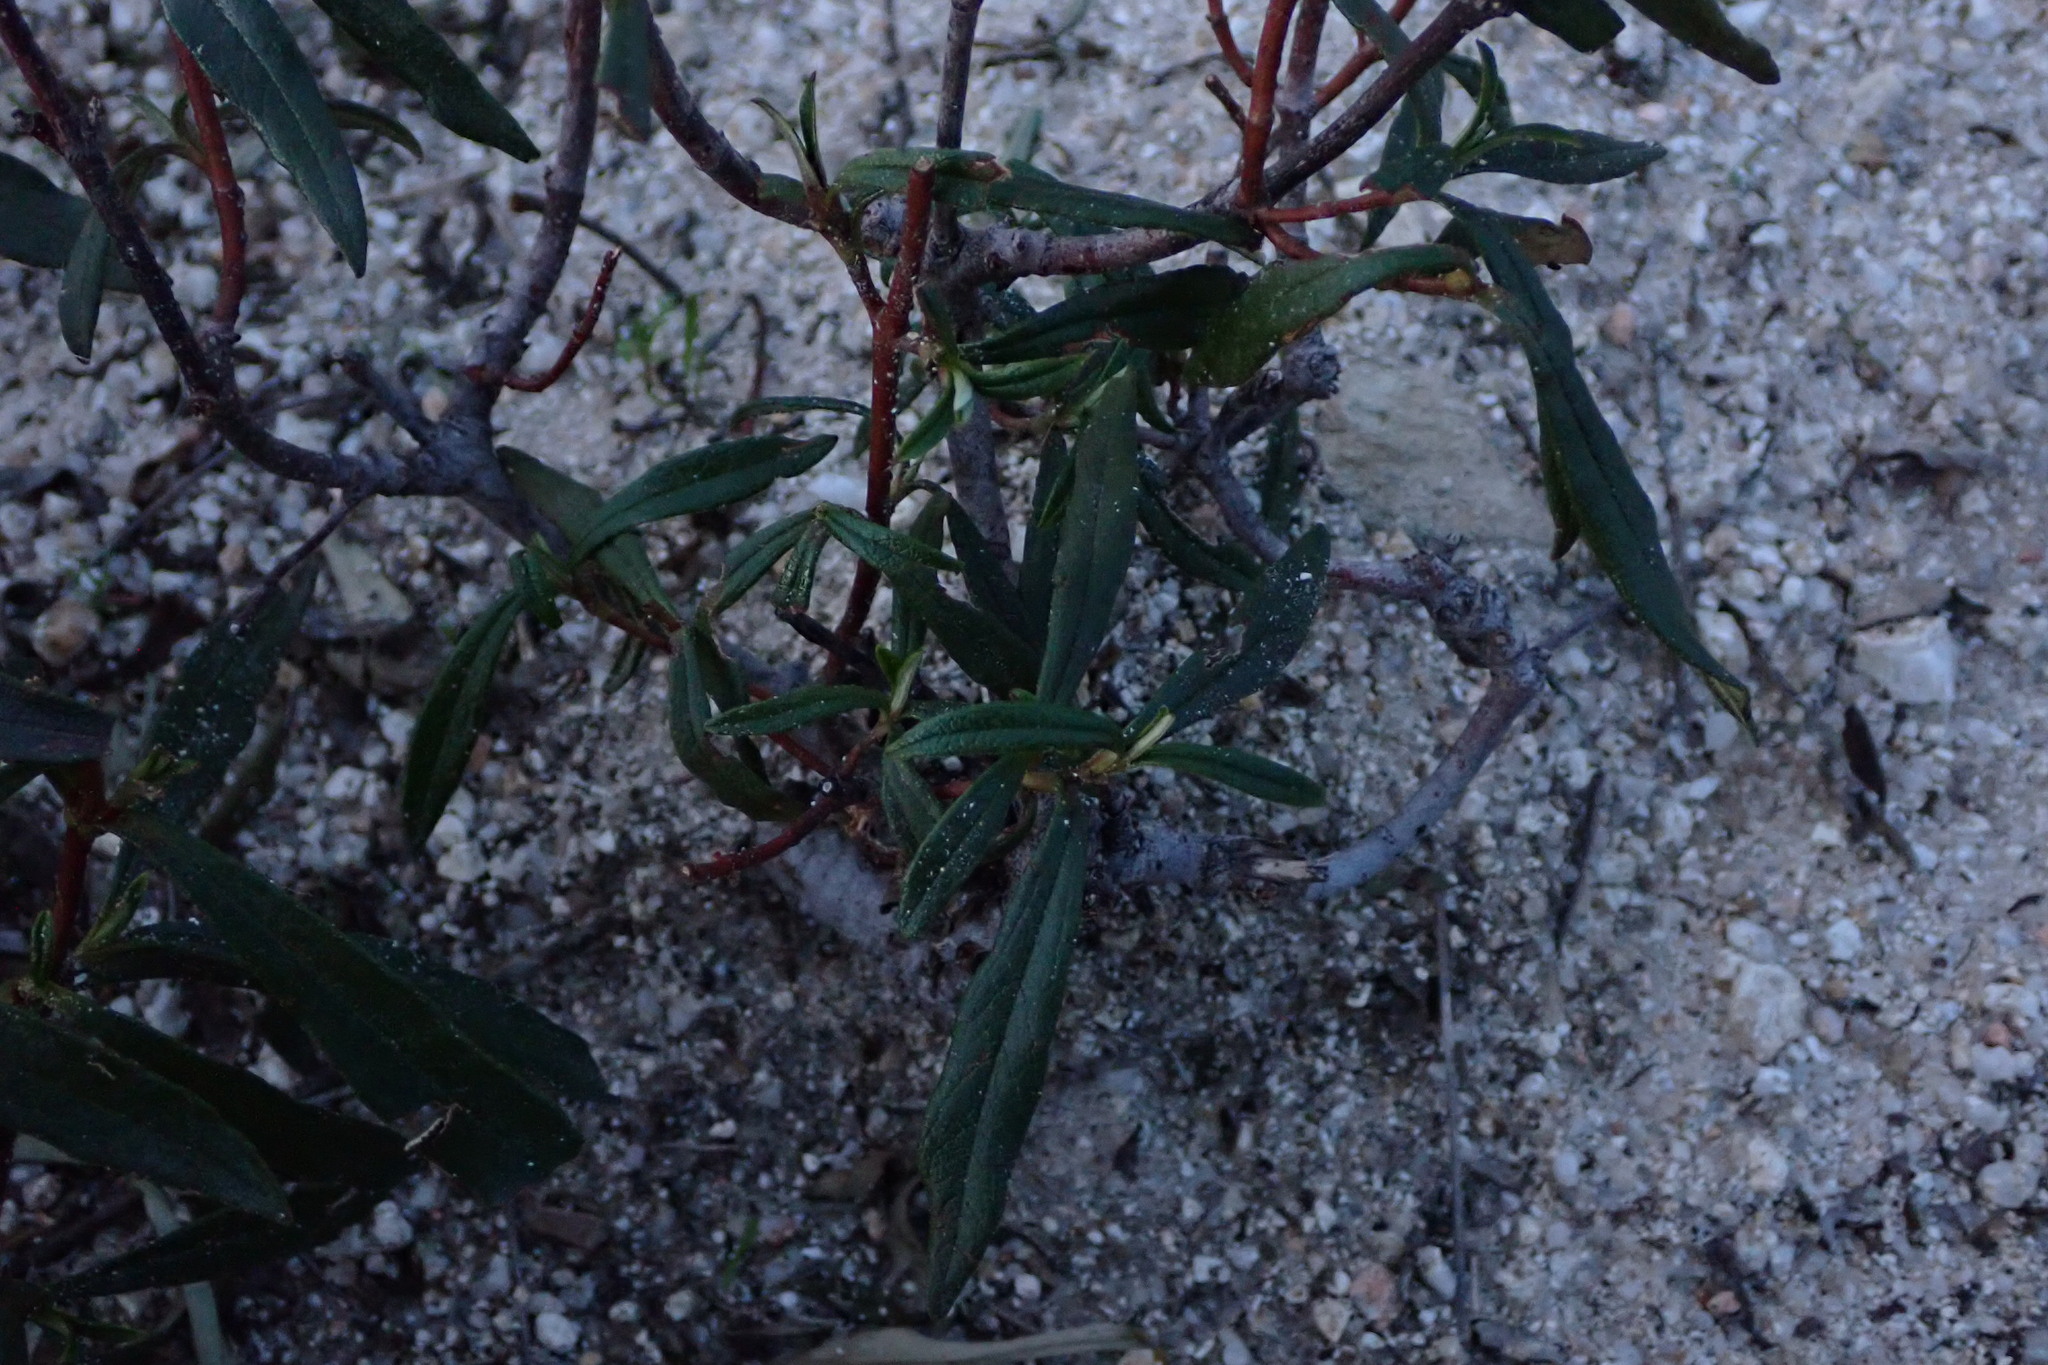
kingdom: Plantae
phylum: Tracheophyta
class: Magnoliopsida
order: Malvales
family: Cistaceae
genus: Cistus
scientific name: Cistus ladanifer
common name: Common gum cistus
